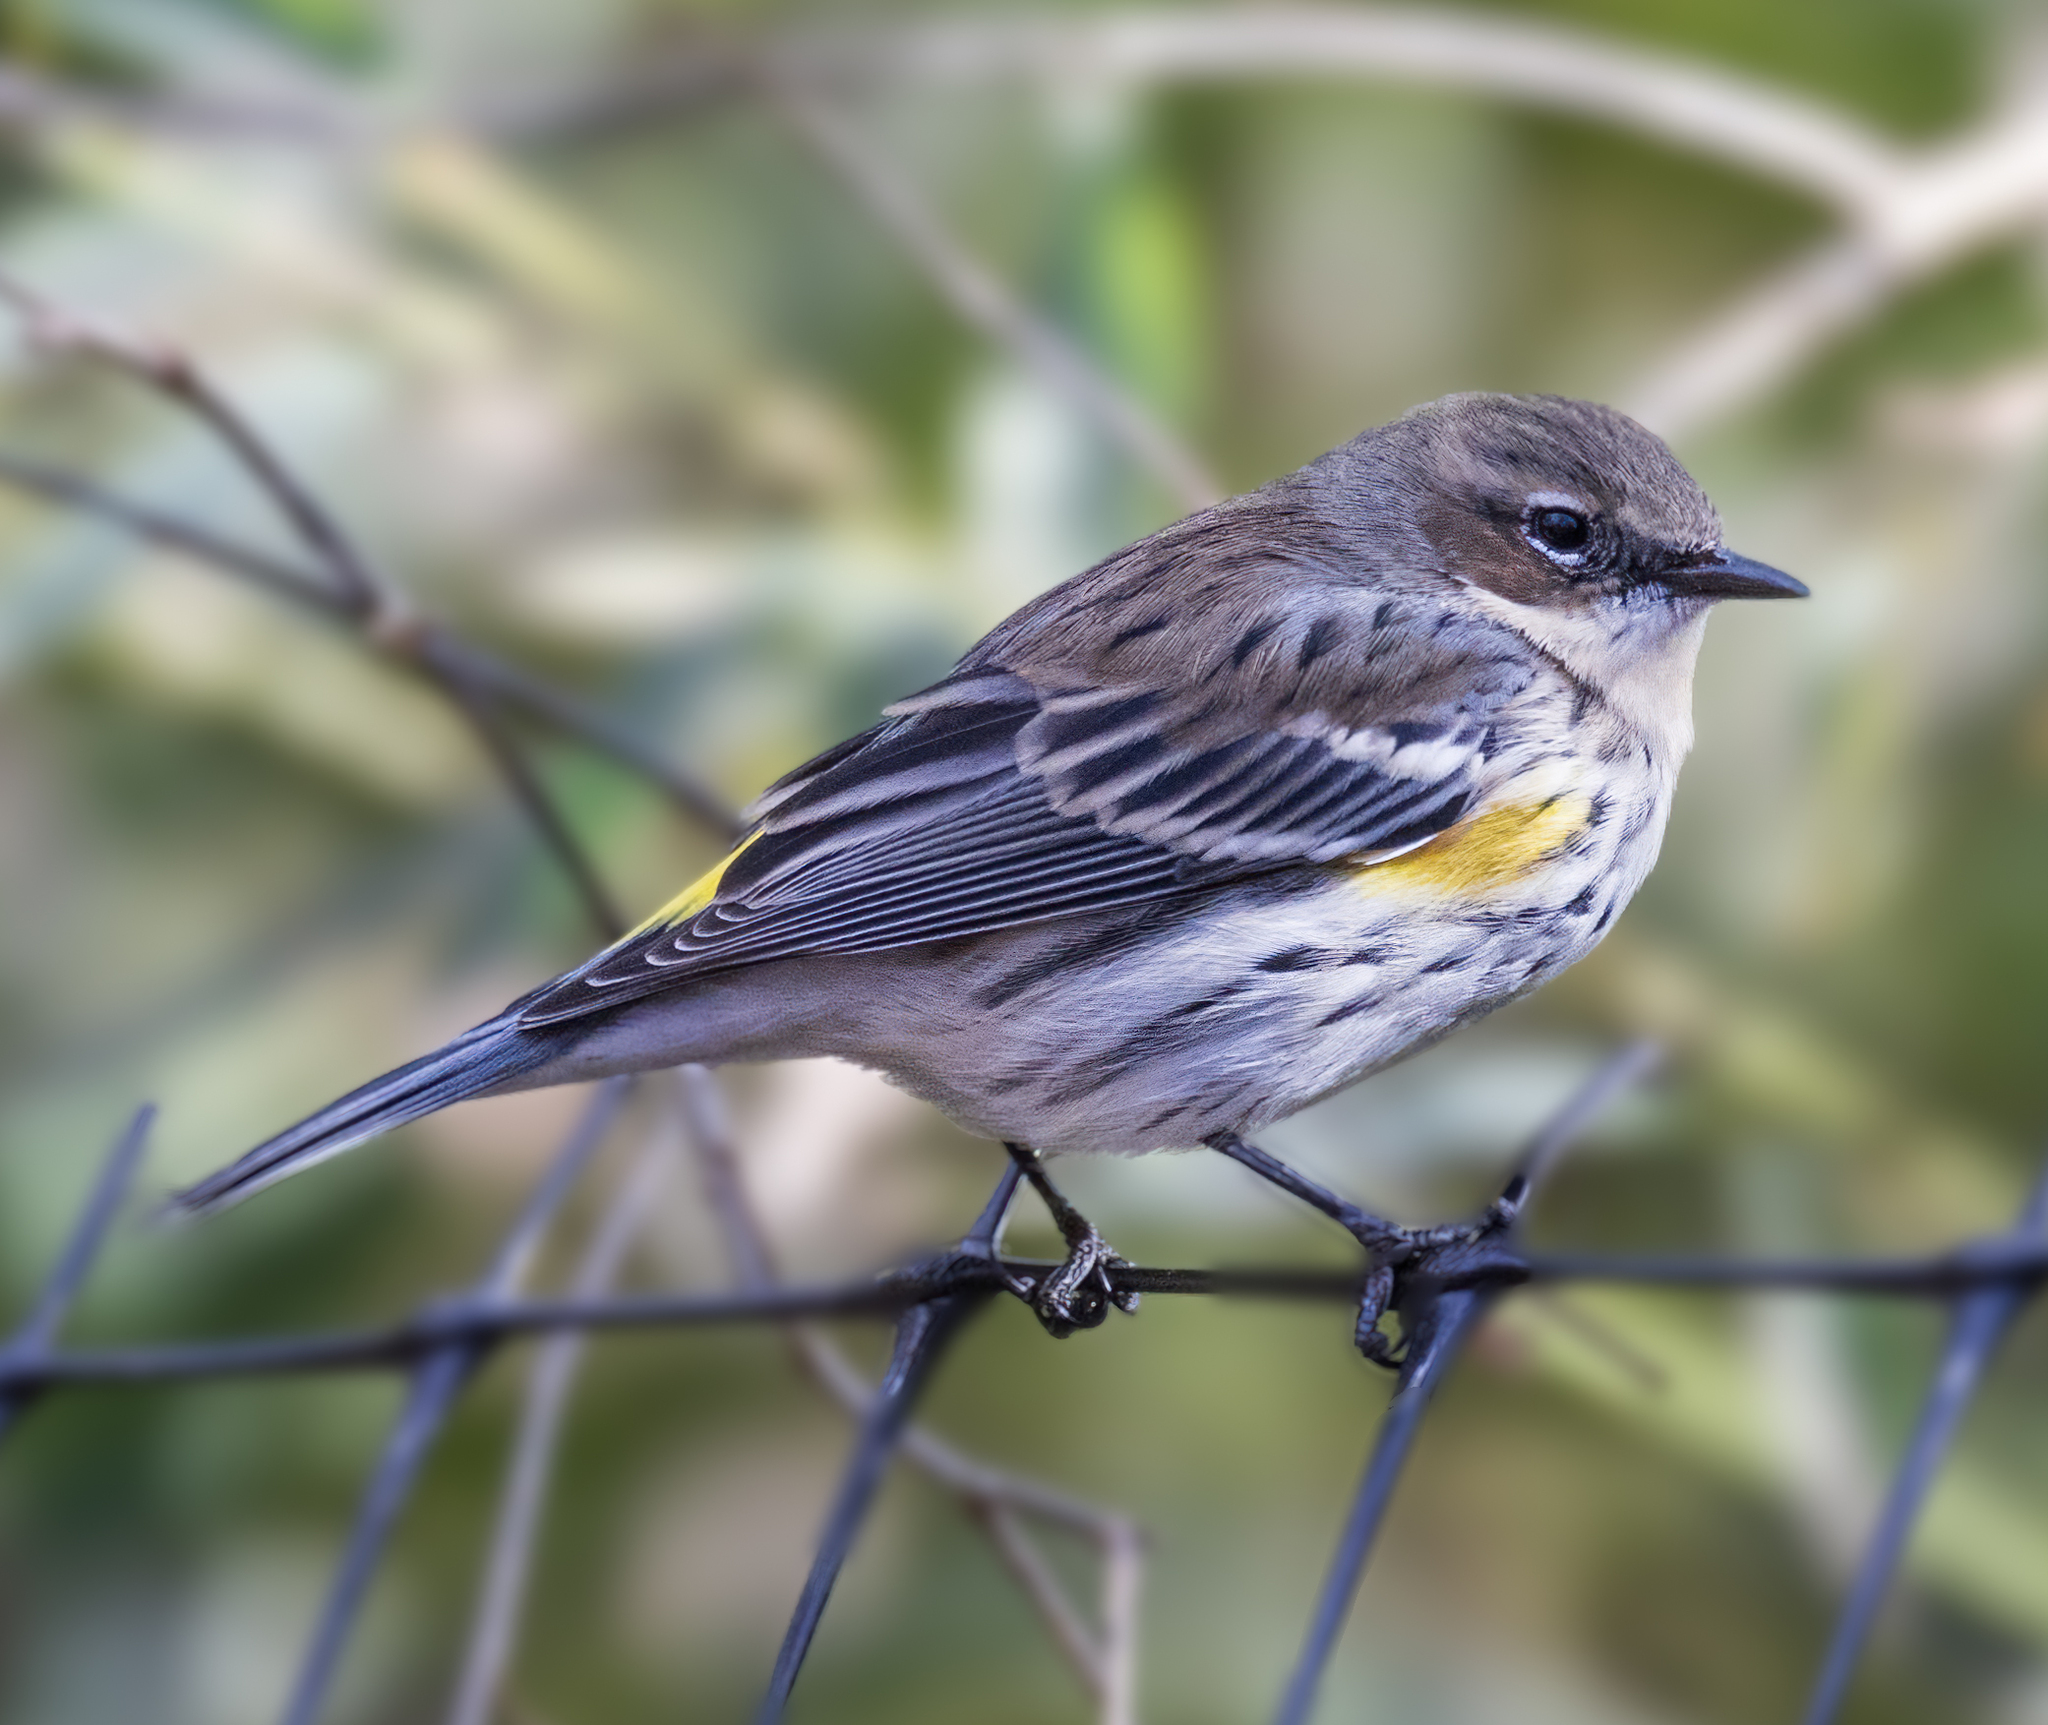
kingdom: Animalia
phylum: Chordata
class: Aves
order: Passeriformes
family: Parulidae
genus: Setophaga
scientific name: Setophaga coronata
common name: Myrtle warbler
